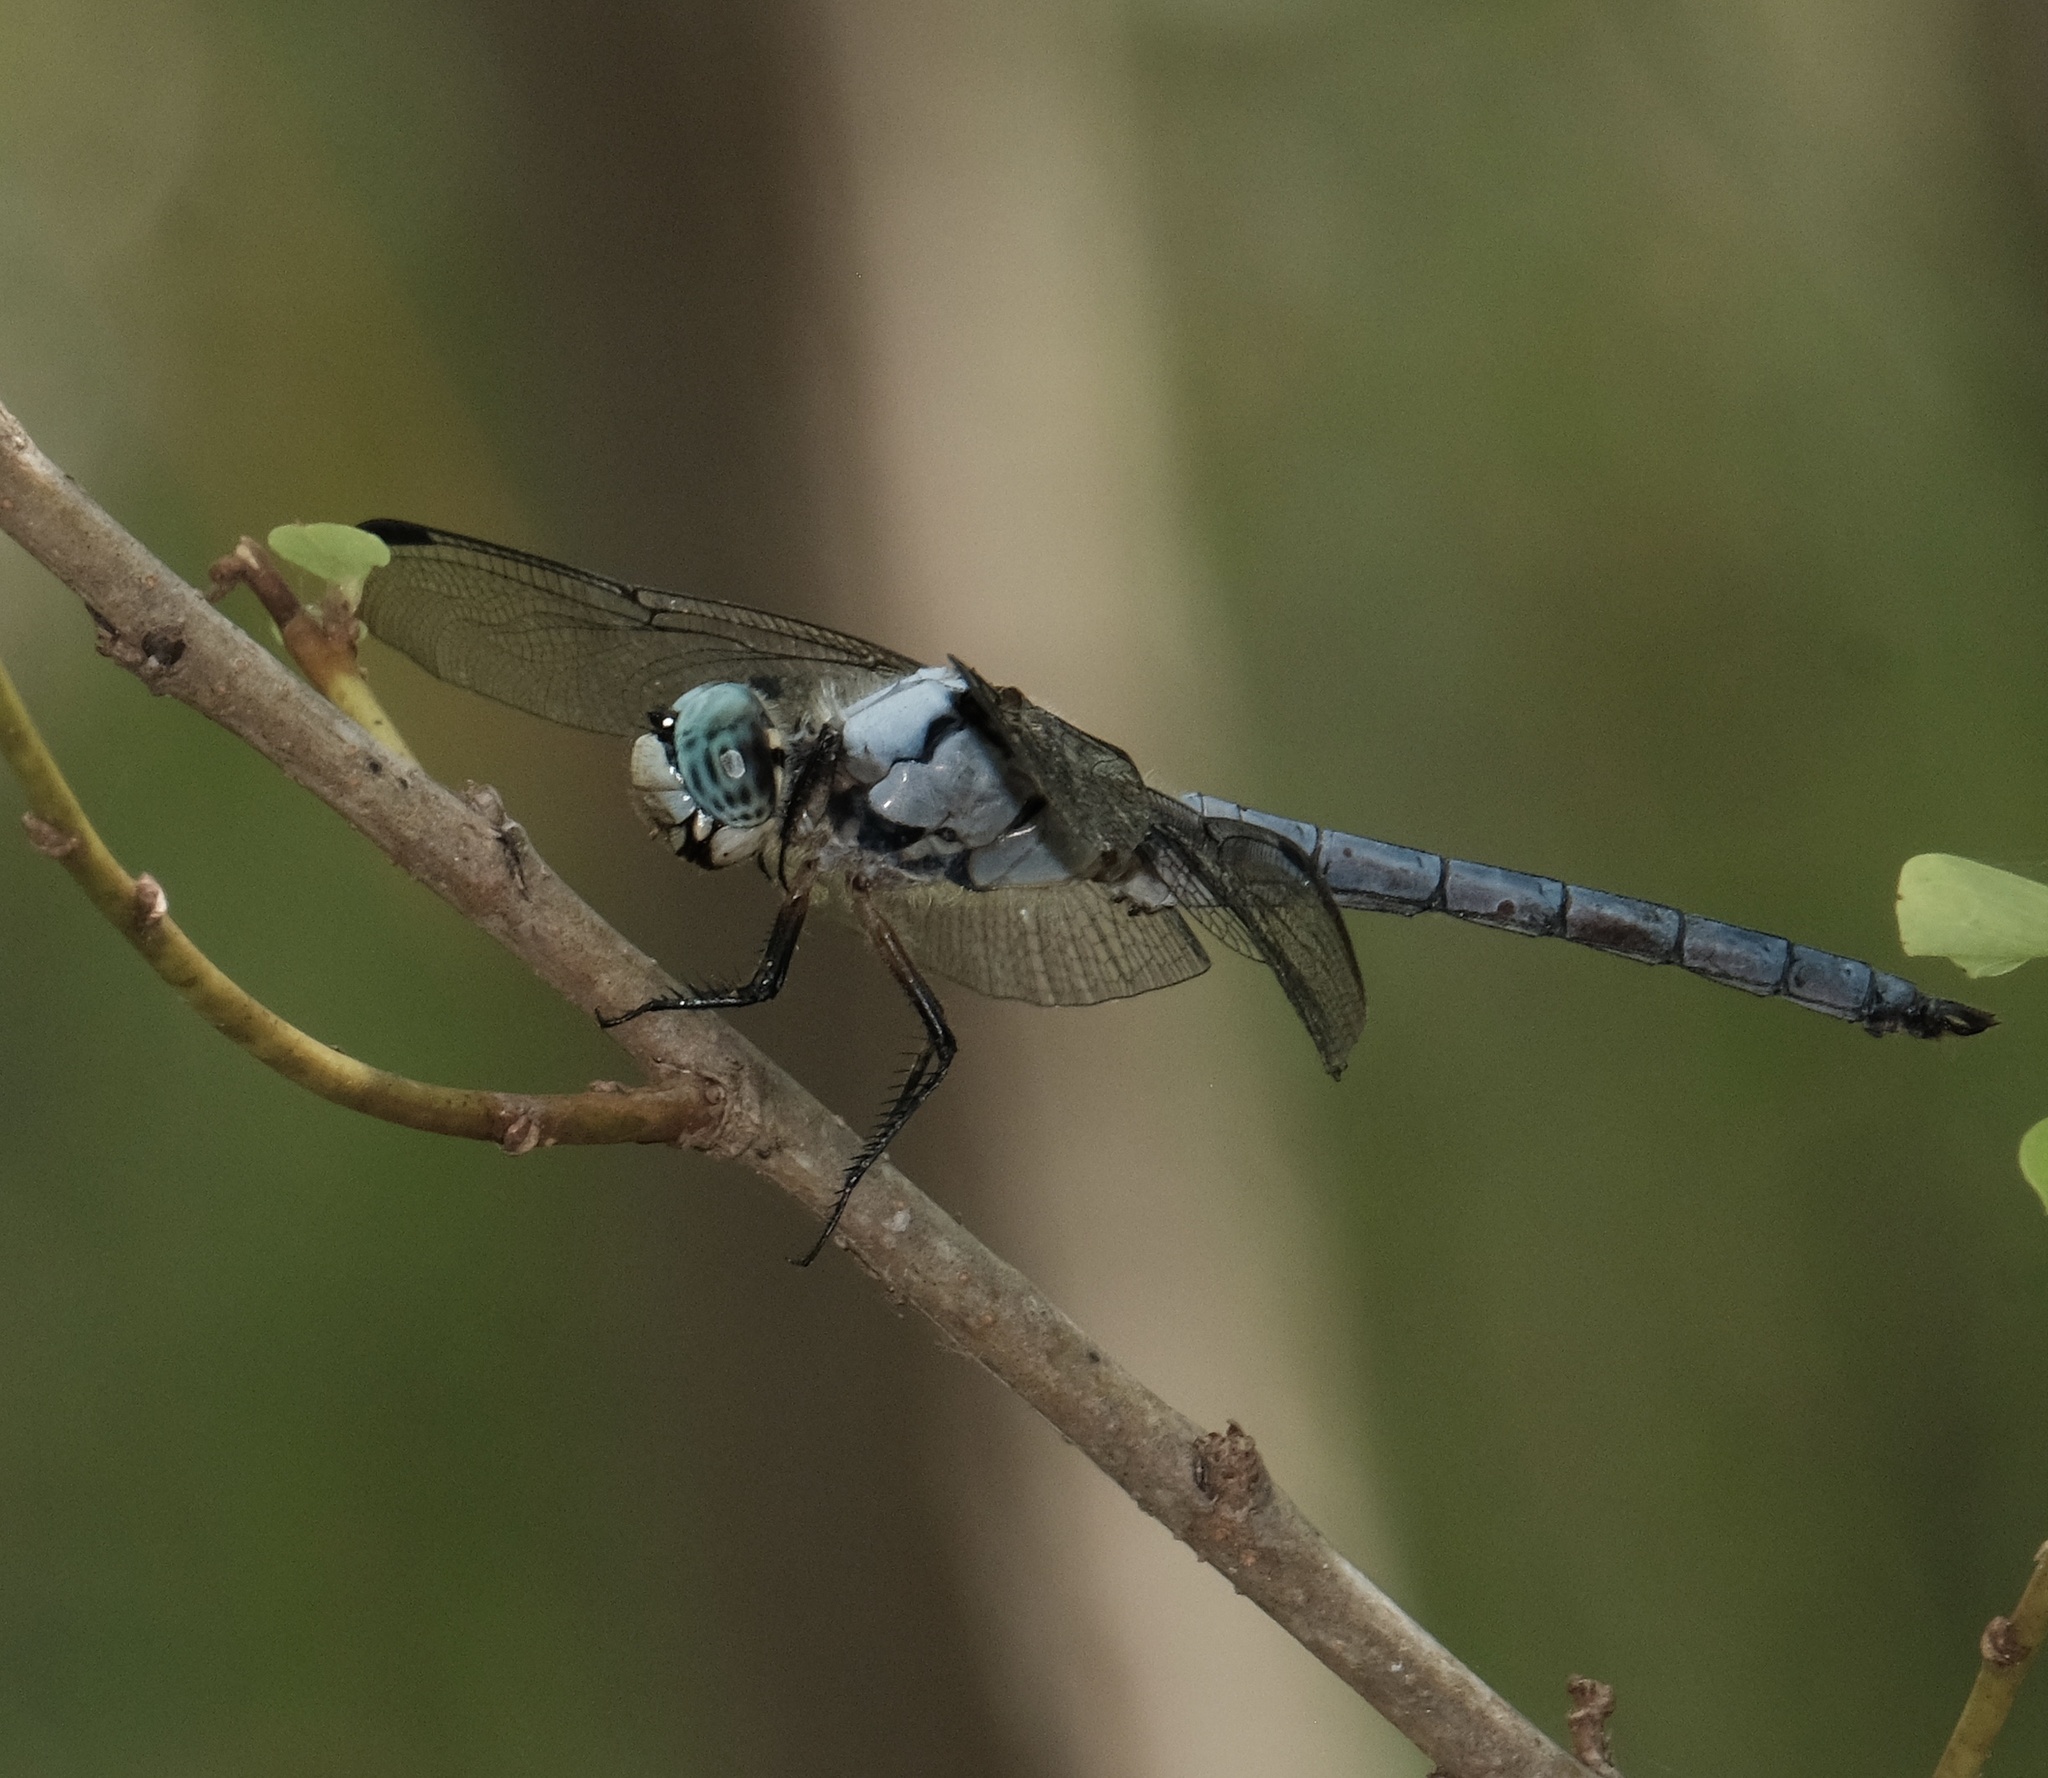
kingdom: Animalia
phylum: Arthropoda
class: Insecta
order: Odonata
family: Libellulidae
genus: Libellula
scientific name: Libellula vibrans
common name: Great blue skimmer
